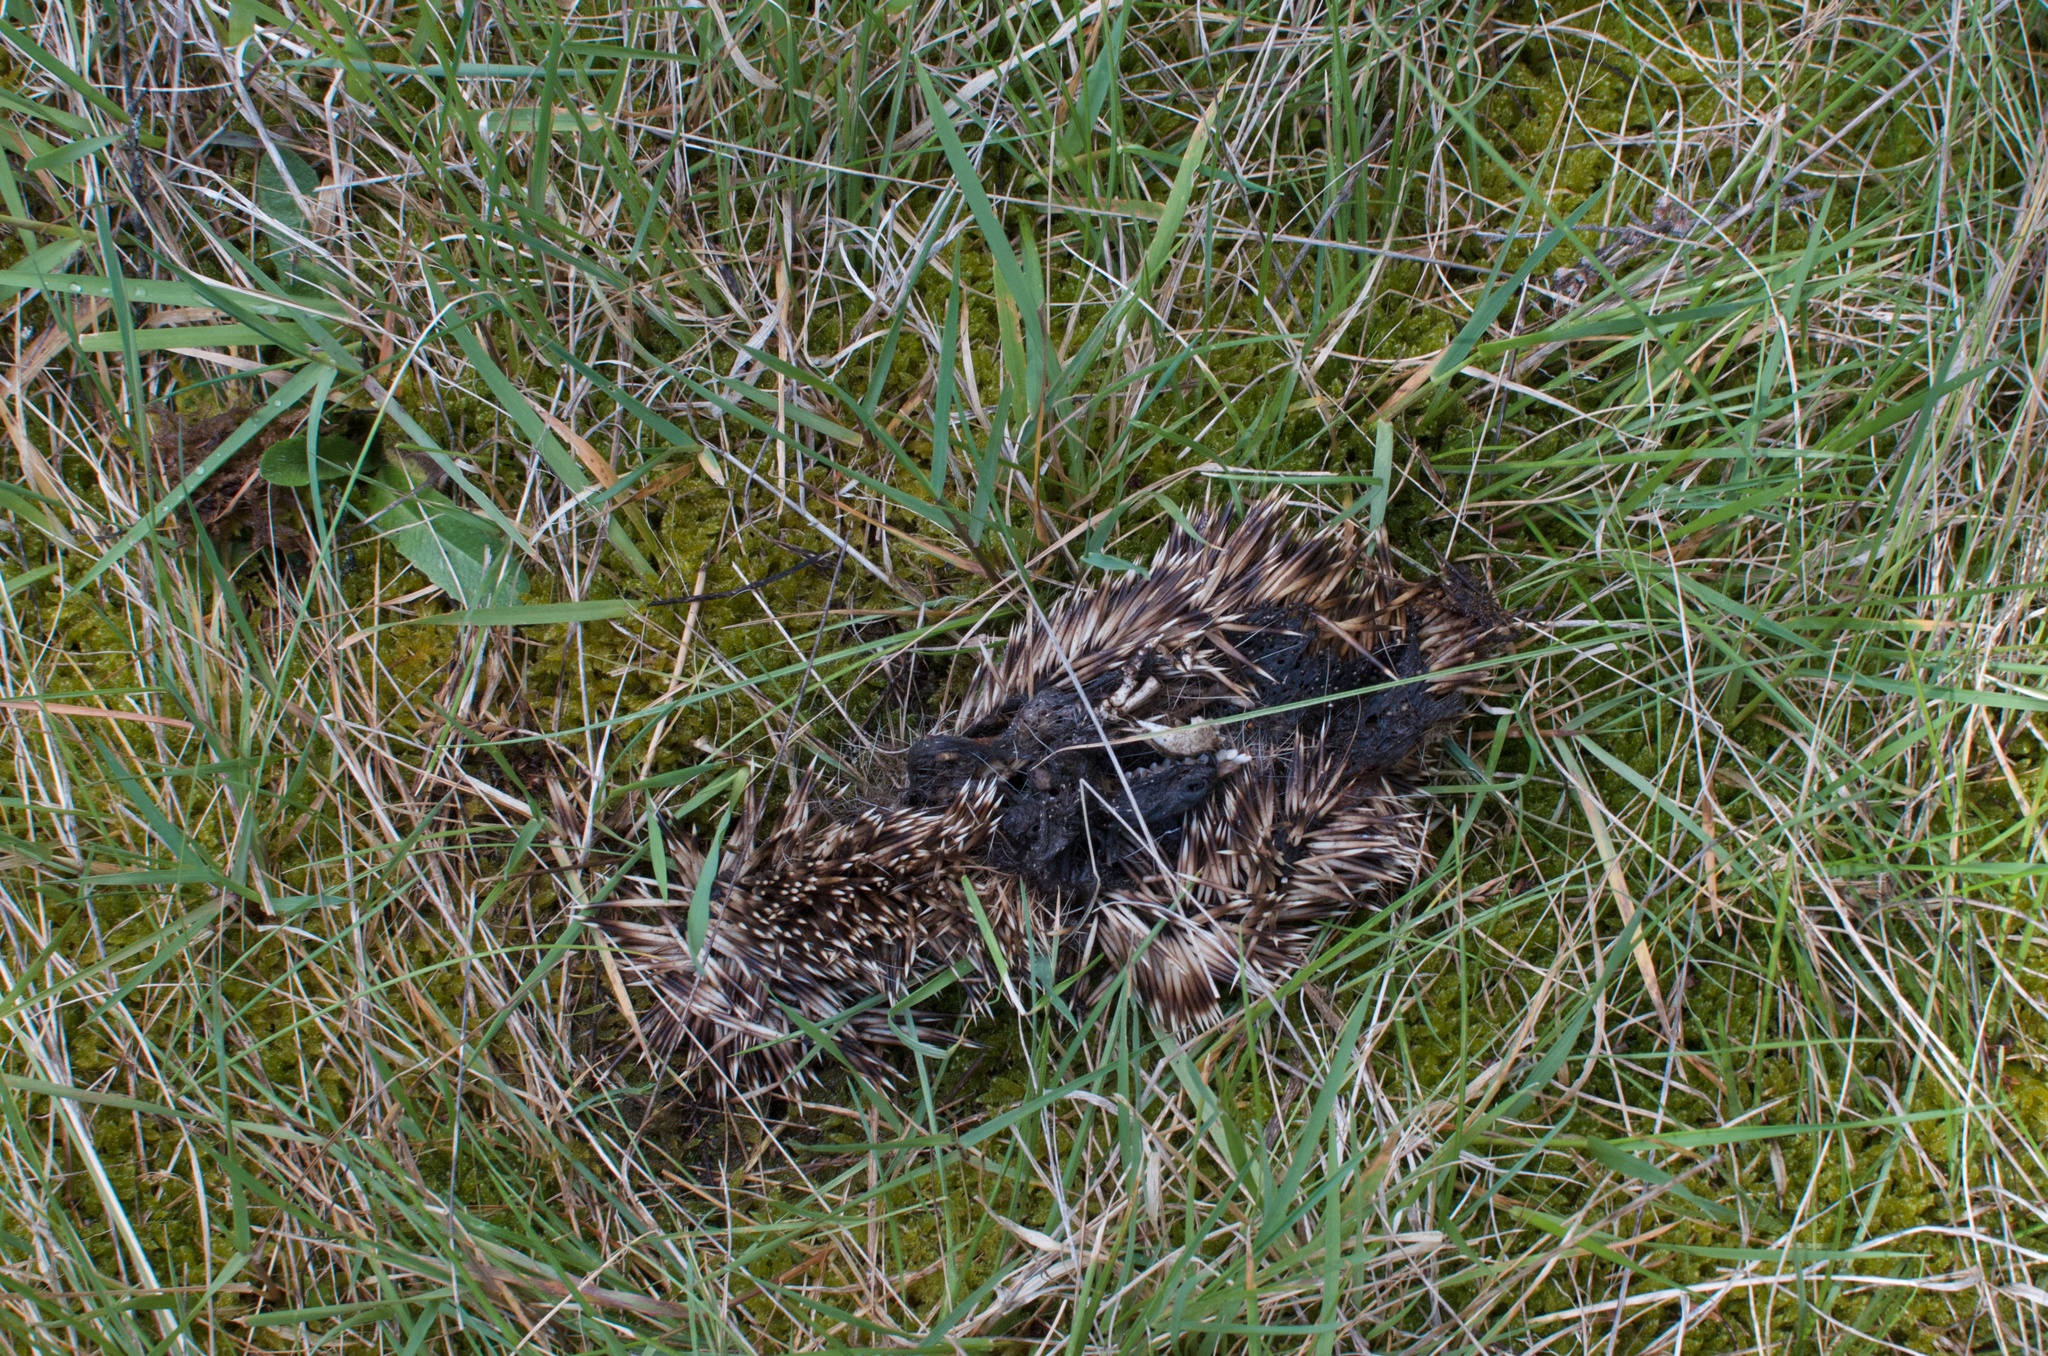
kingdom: Animalia
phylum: Chordata
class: Mammalia
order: Erinaceomorpha
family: Erinaceidae
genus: Erinaceus
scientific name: Erinaceus europaeus
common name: West european hedgehog
